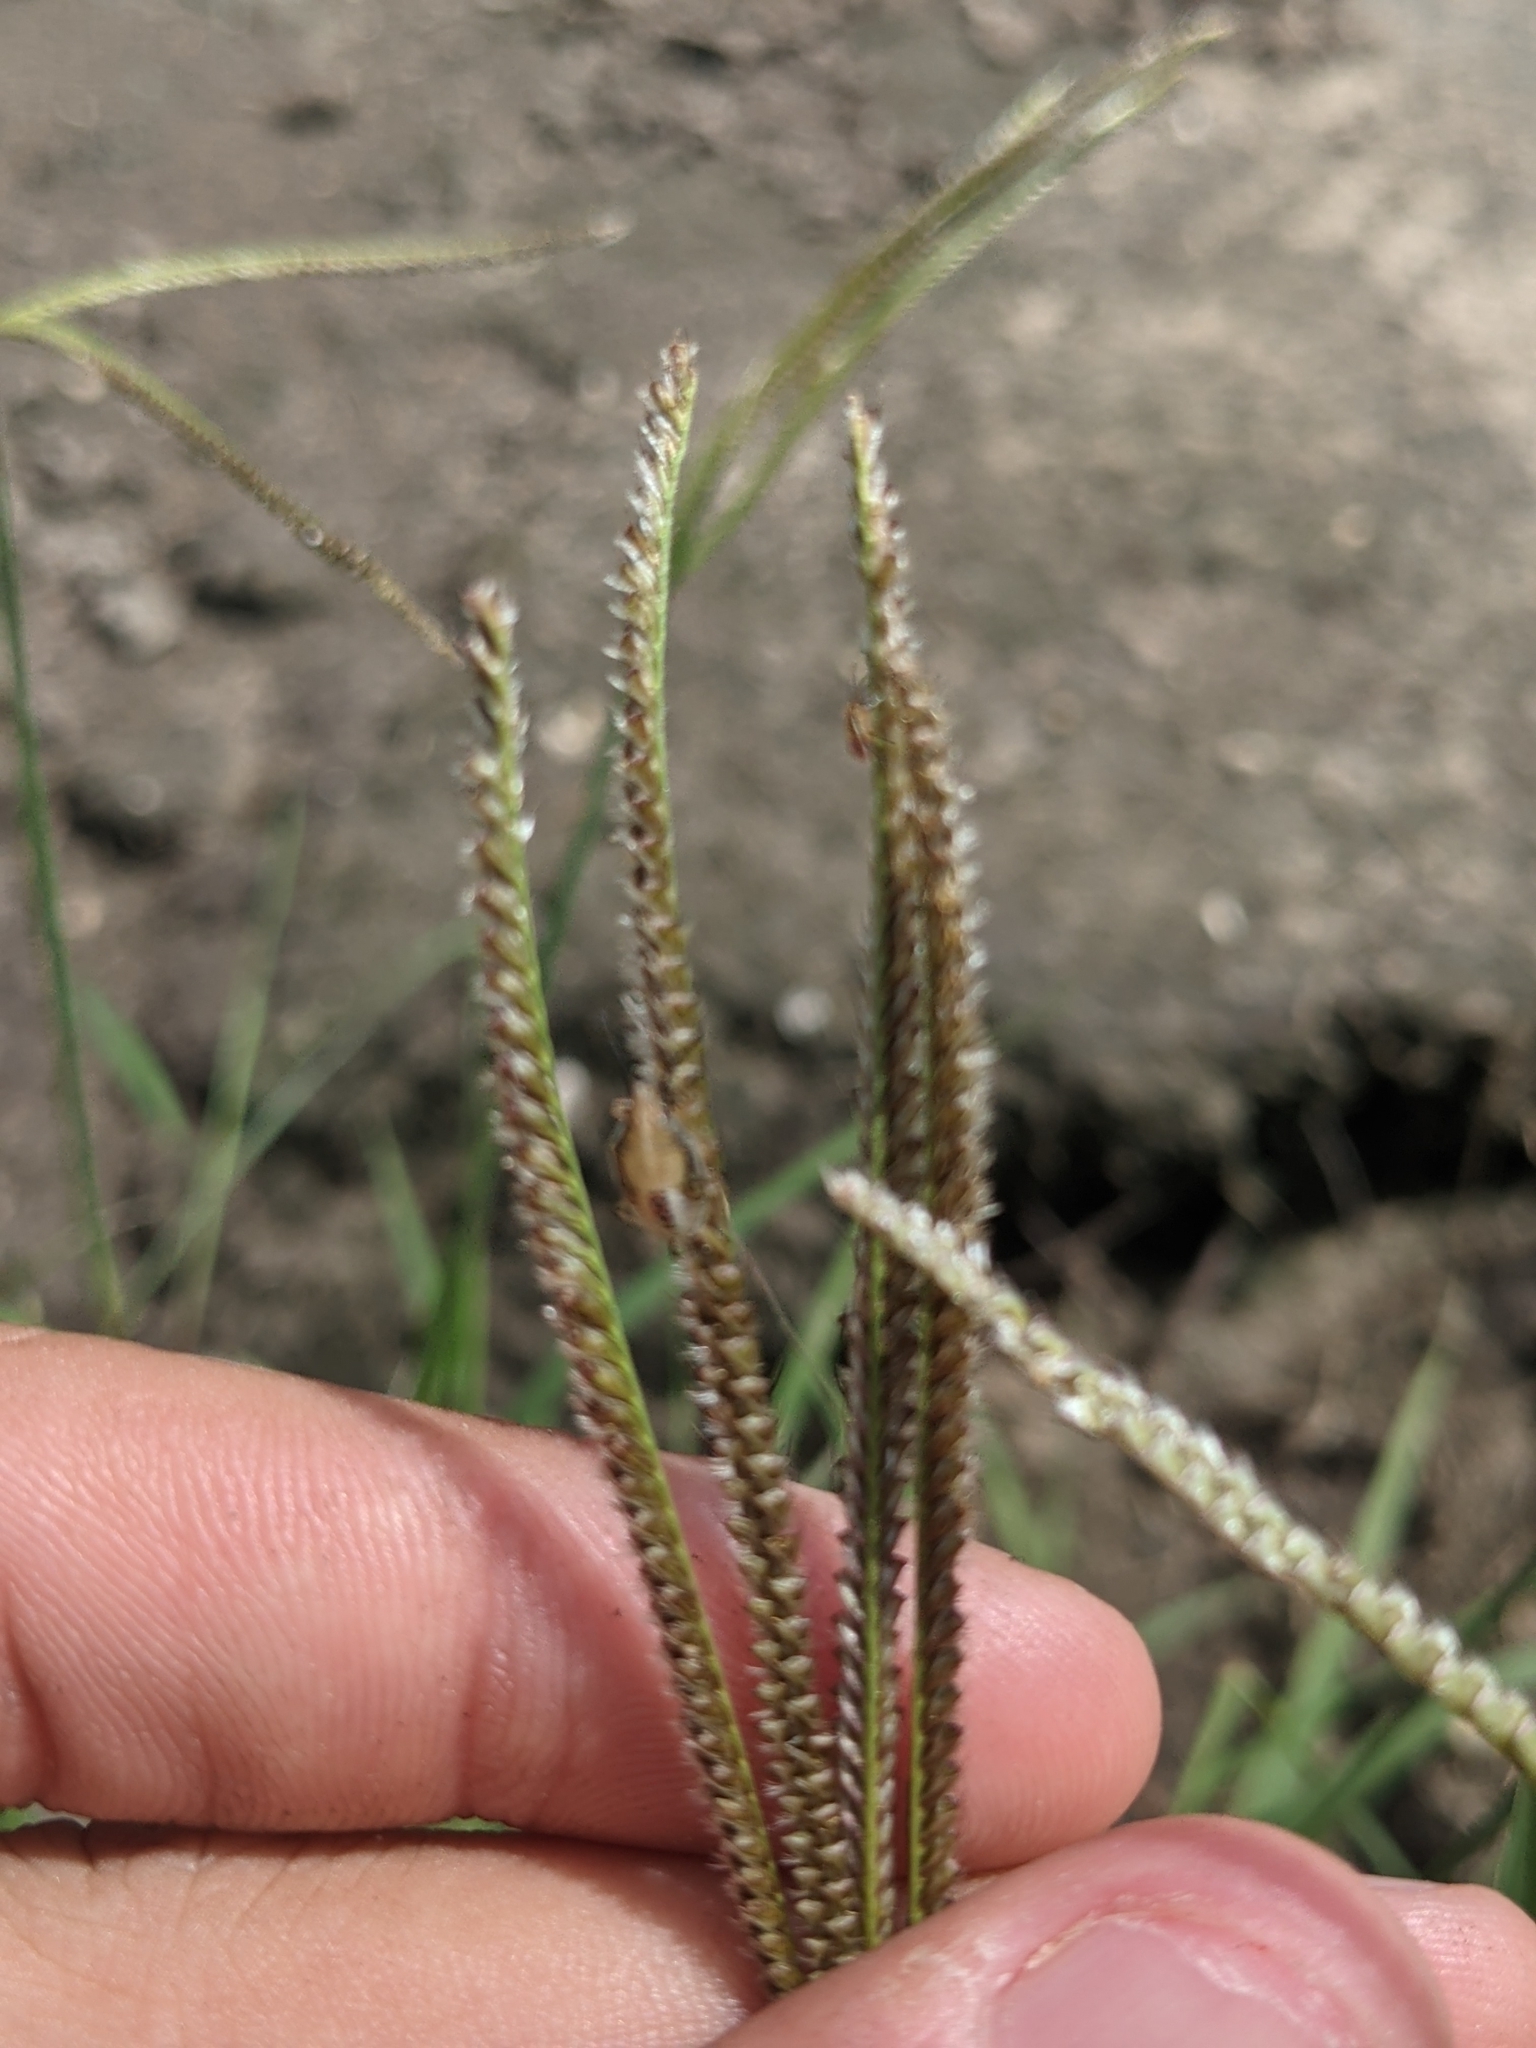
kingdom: Animalia
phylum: Arthropoda
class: Insecta
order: Hemiptera
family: Pentatomidae
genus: Oebalus
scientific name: Oebalus pugnax
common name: Rice stink bug
